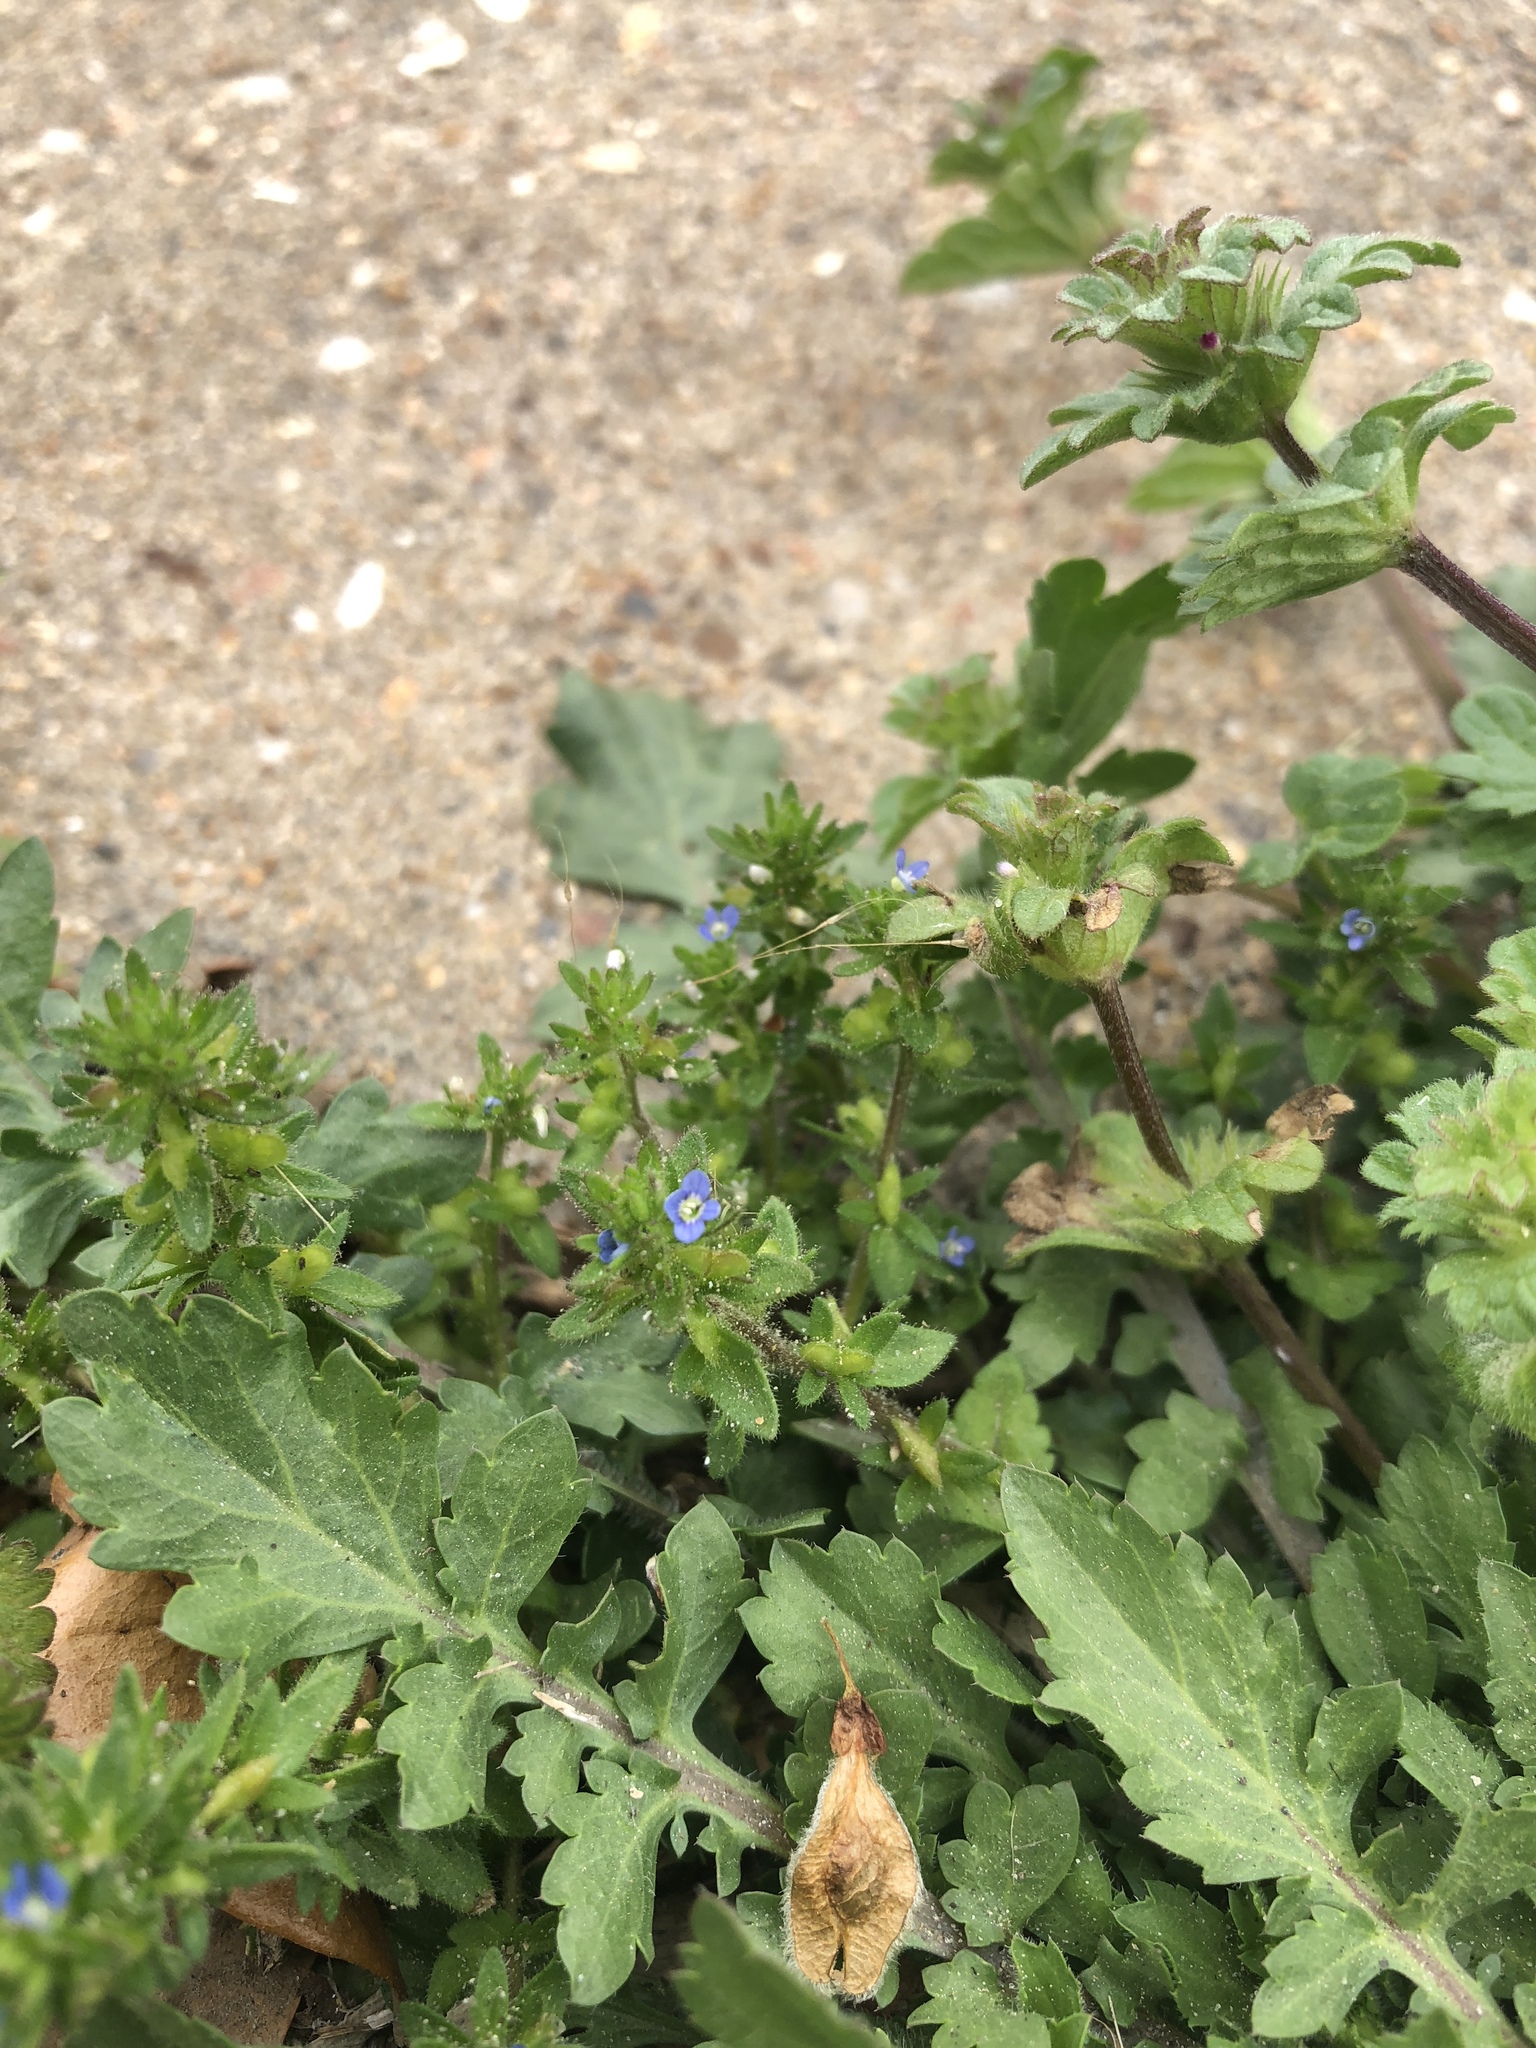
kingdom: Plantae
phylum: Tracheophyta
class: Magnoliopsida
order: Lamiales
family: Plantaginaceae
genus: Veronica
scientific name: Veronica arvensis
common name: Corn speedwell
